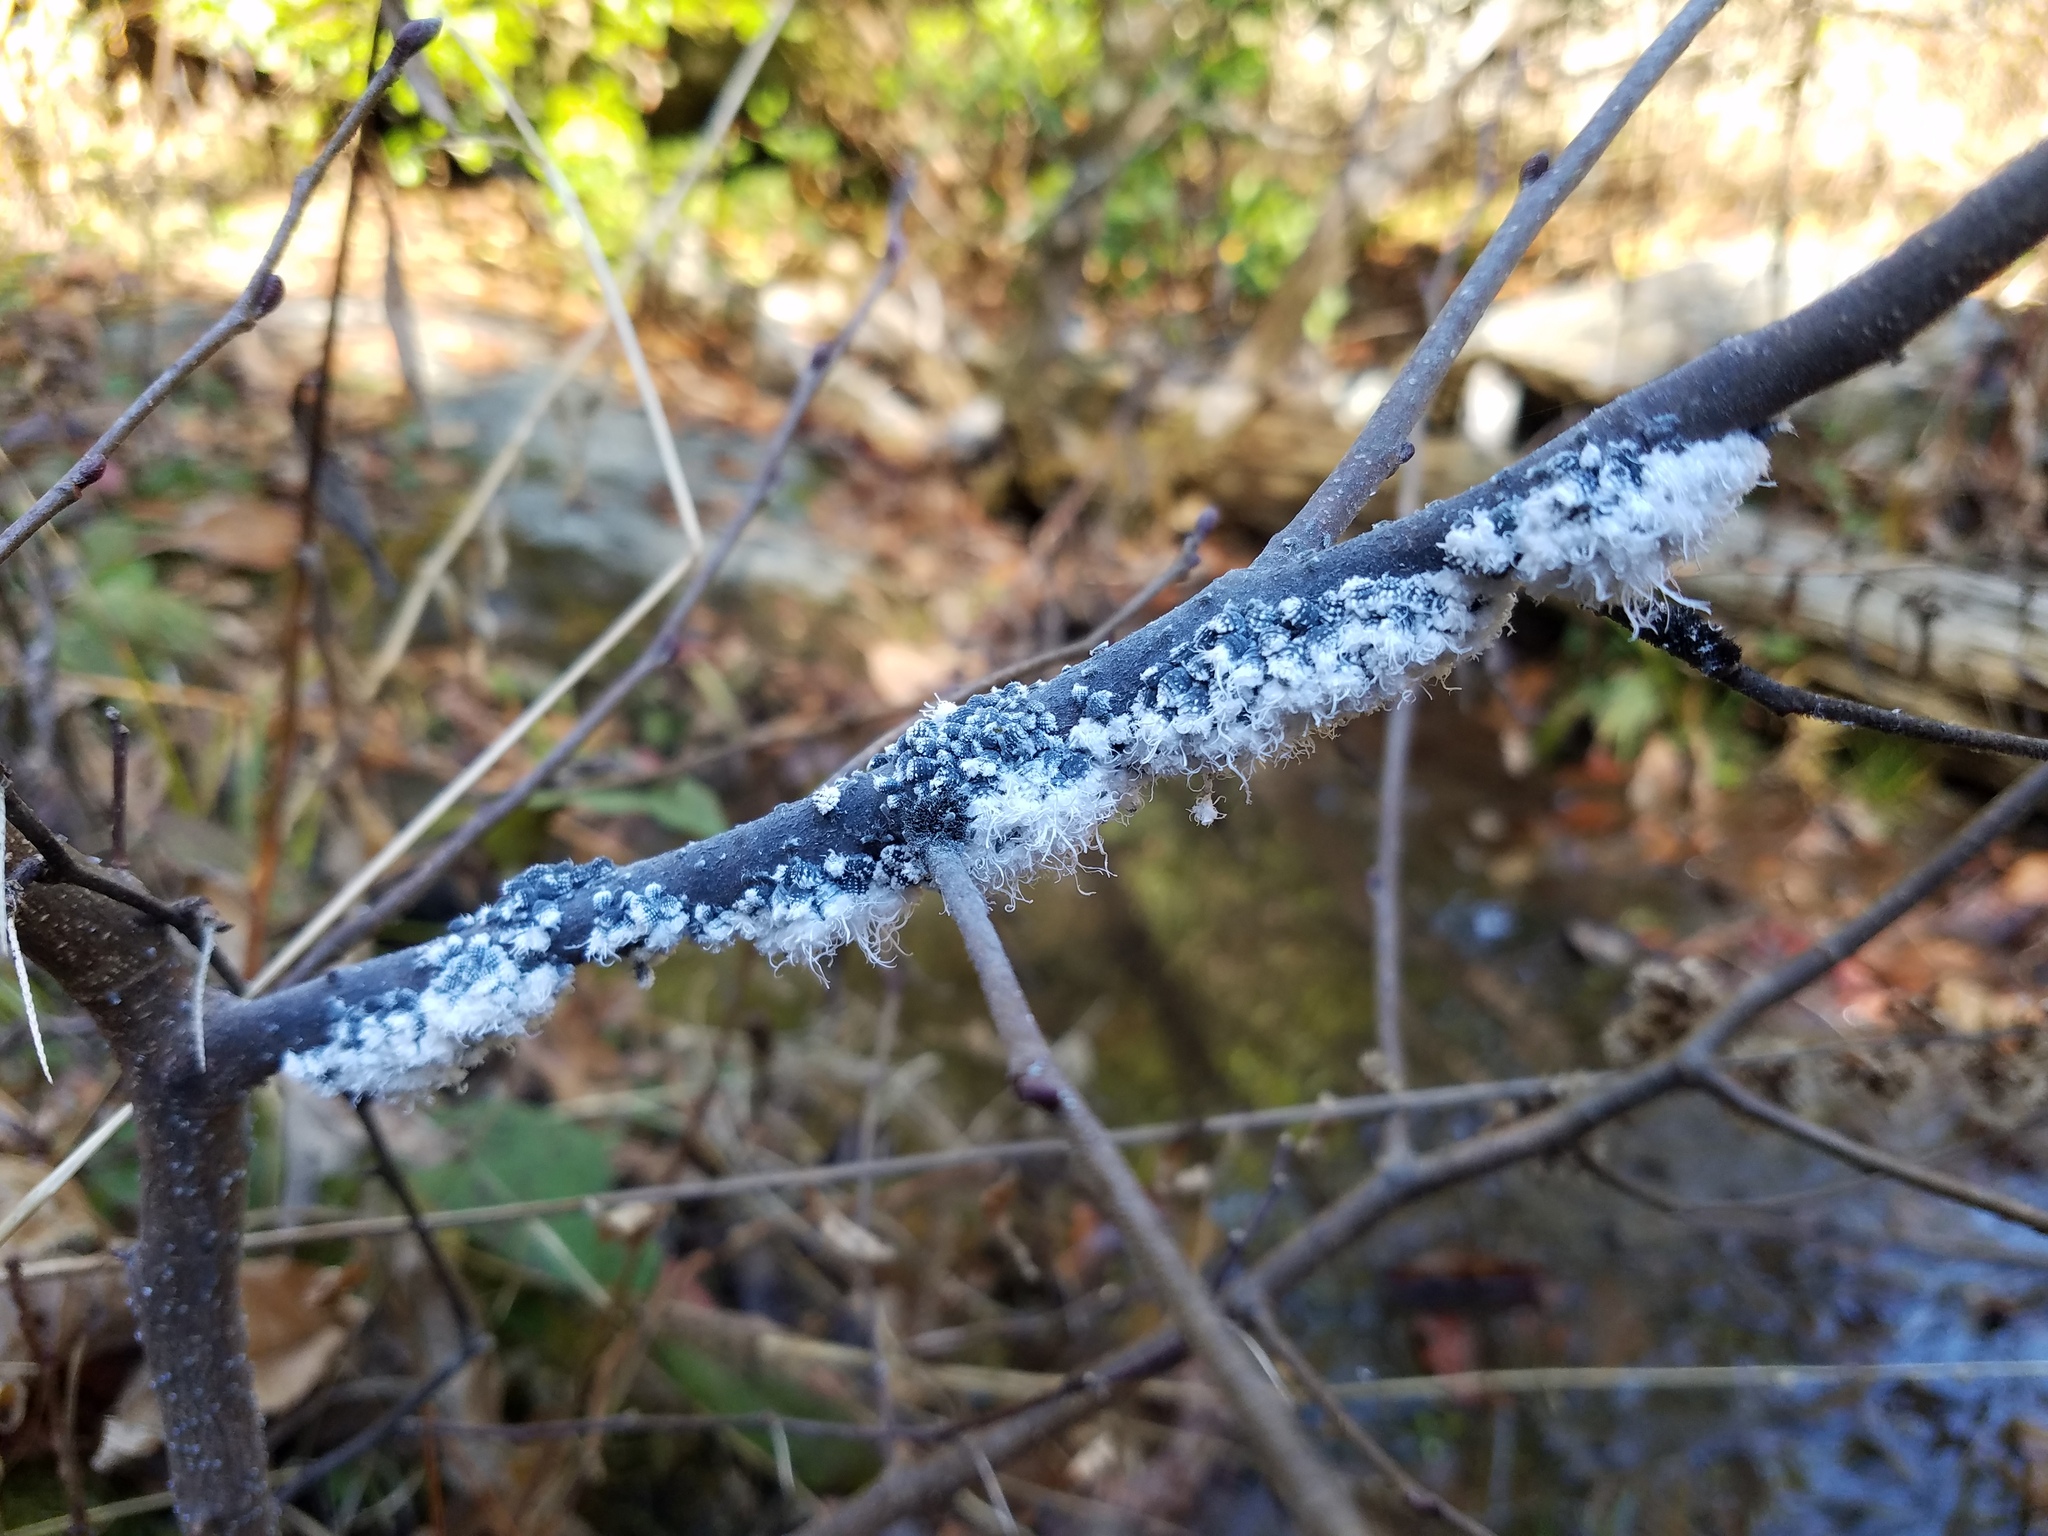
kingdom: Animalia
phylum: Arthropoda
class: Insecta
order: Hemiptera
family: Aphididae
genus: Prociphilus
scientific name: Prociphilus tessellatus
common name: Woolly alder aphid
